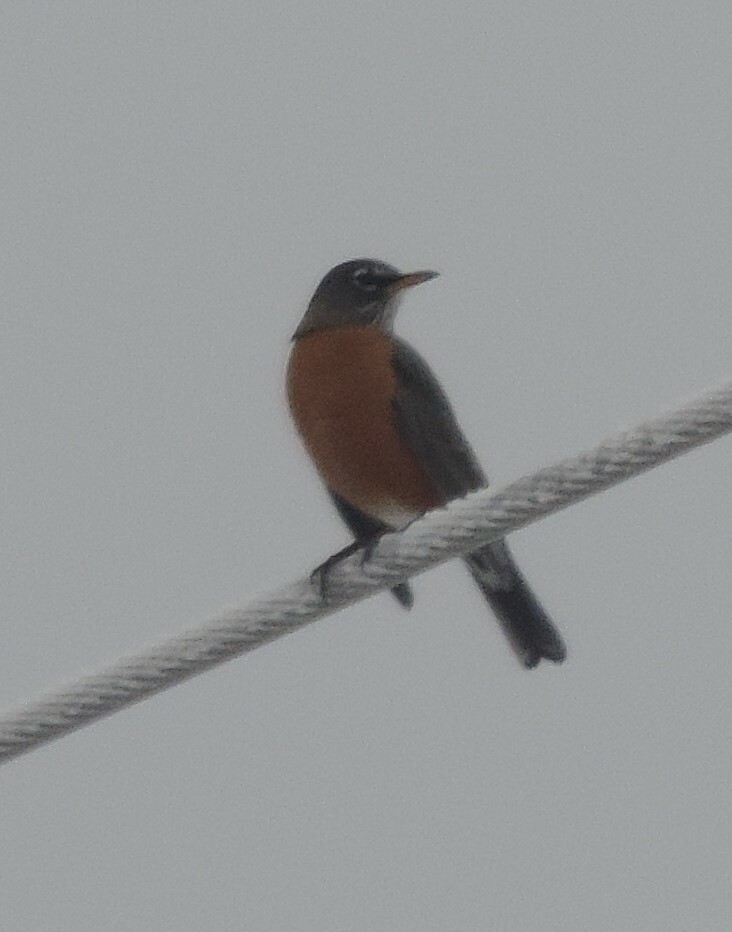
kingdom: Animalia
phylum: Chordata
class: Aves
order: Passeriformes
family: Turdidae
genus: Turdus
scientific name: Turdus migratorius
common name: American robin
